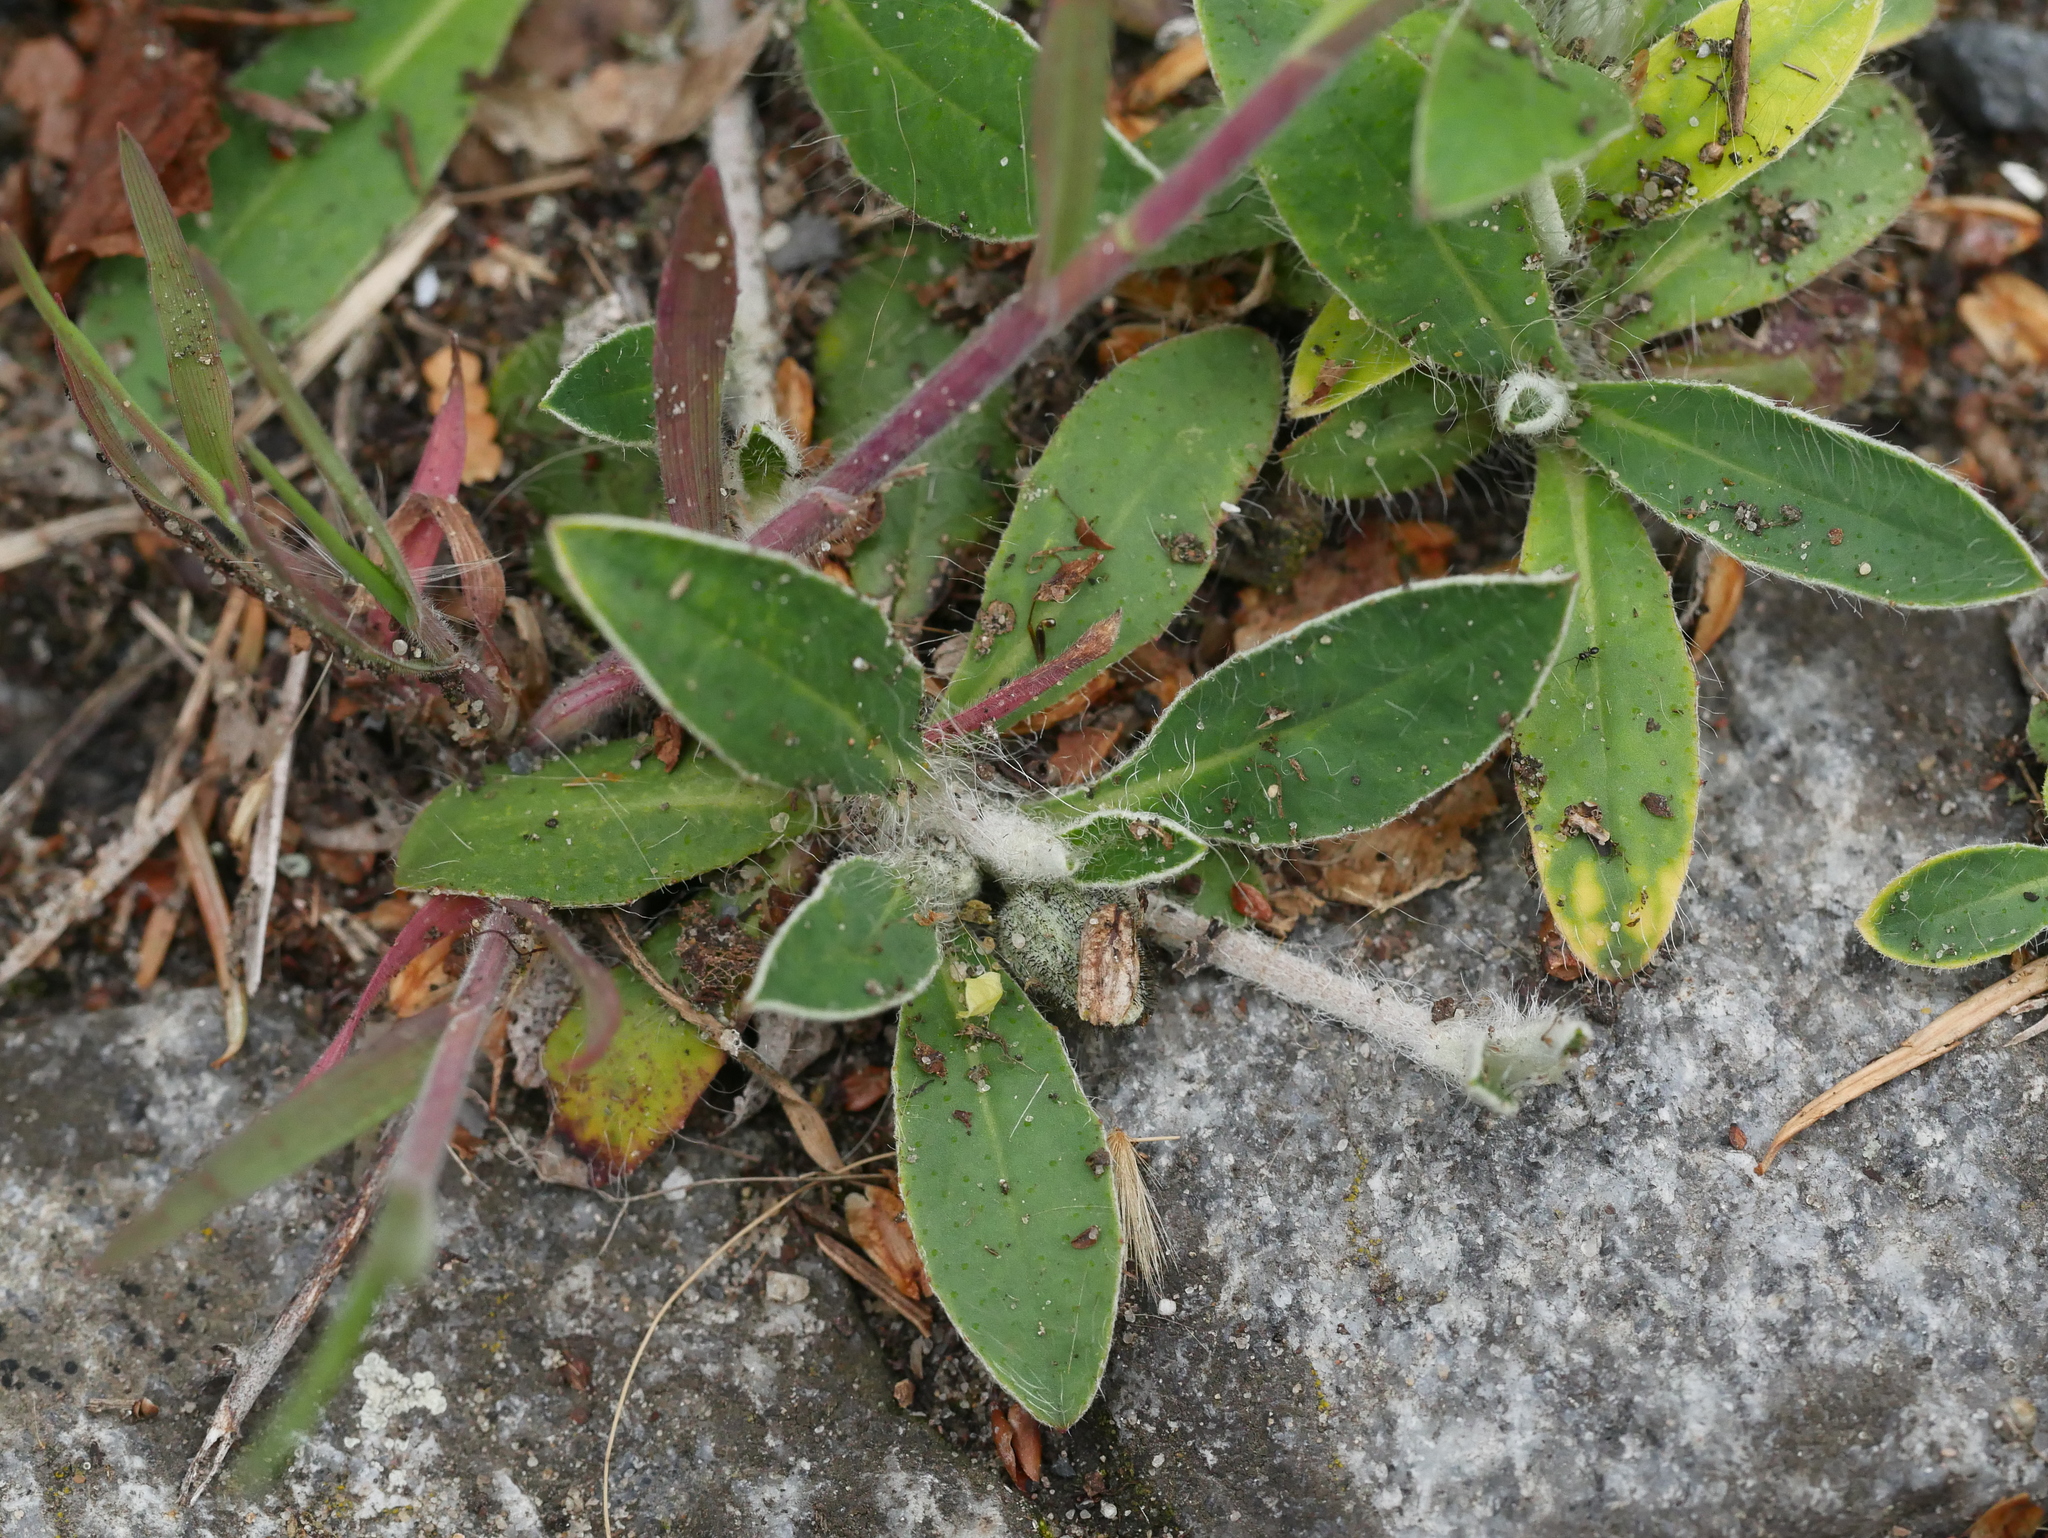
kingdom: Plantae
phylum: Tracheophyta
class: Magnoliopsida
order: Asterales
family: Asteraceae
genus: Pilosella
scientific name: Pilosella officinarum
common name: Mouse-ear hawkweed
